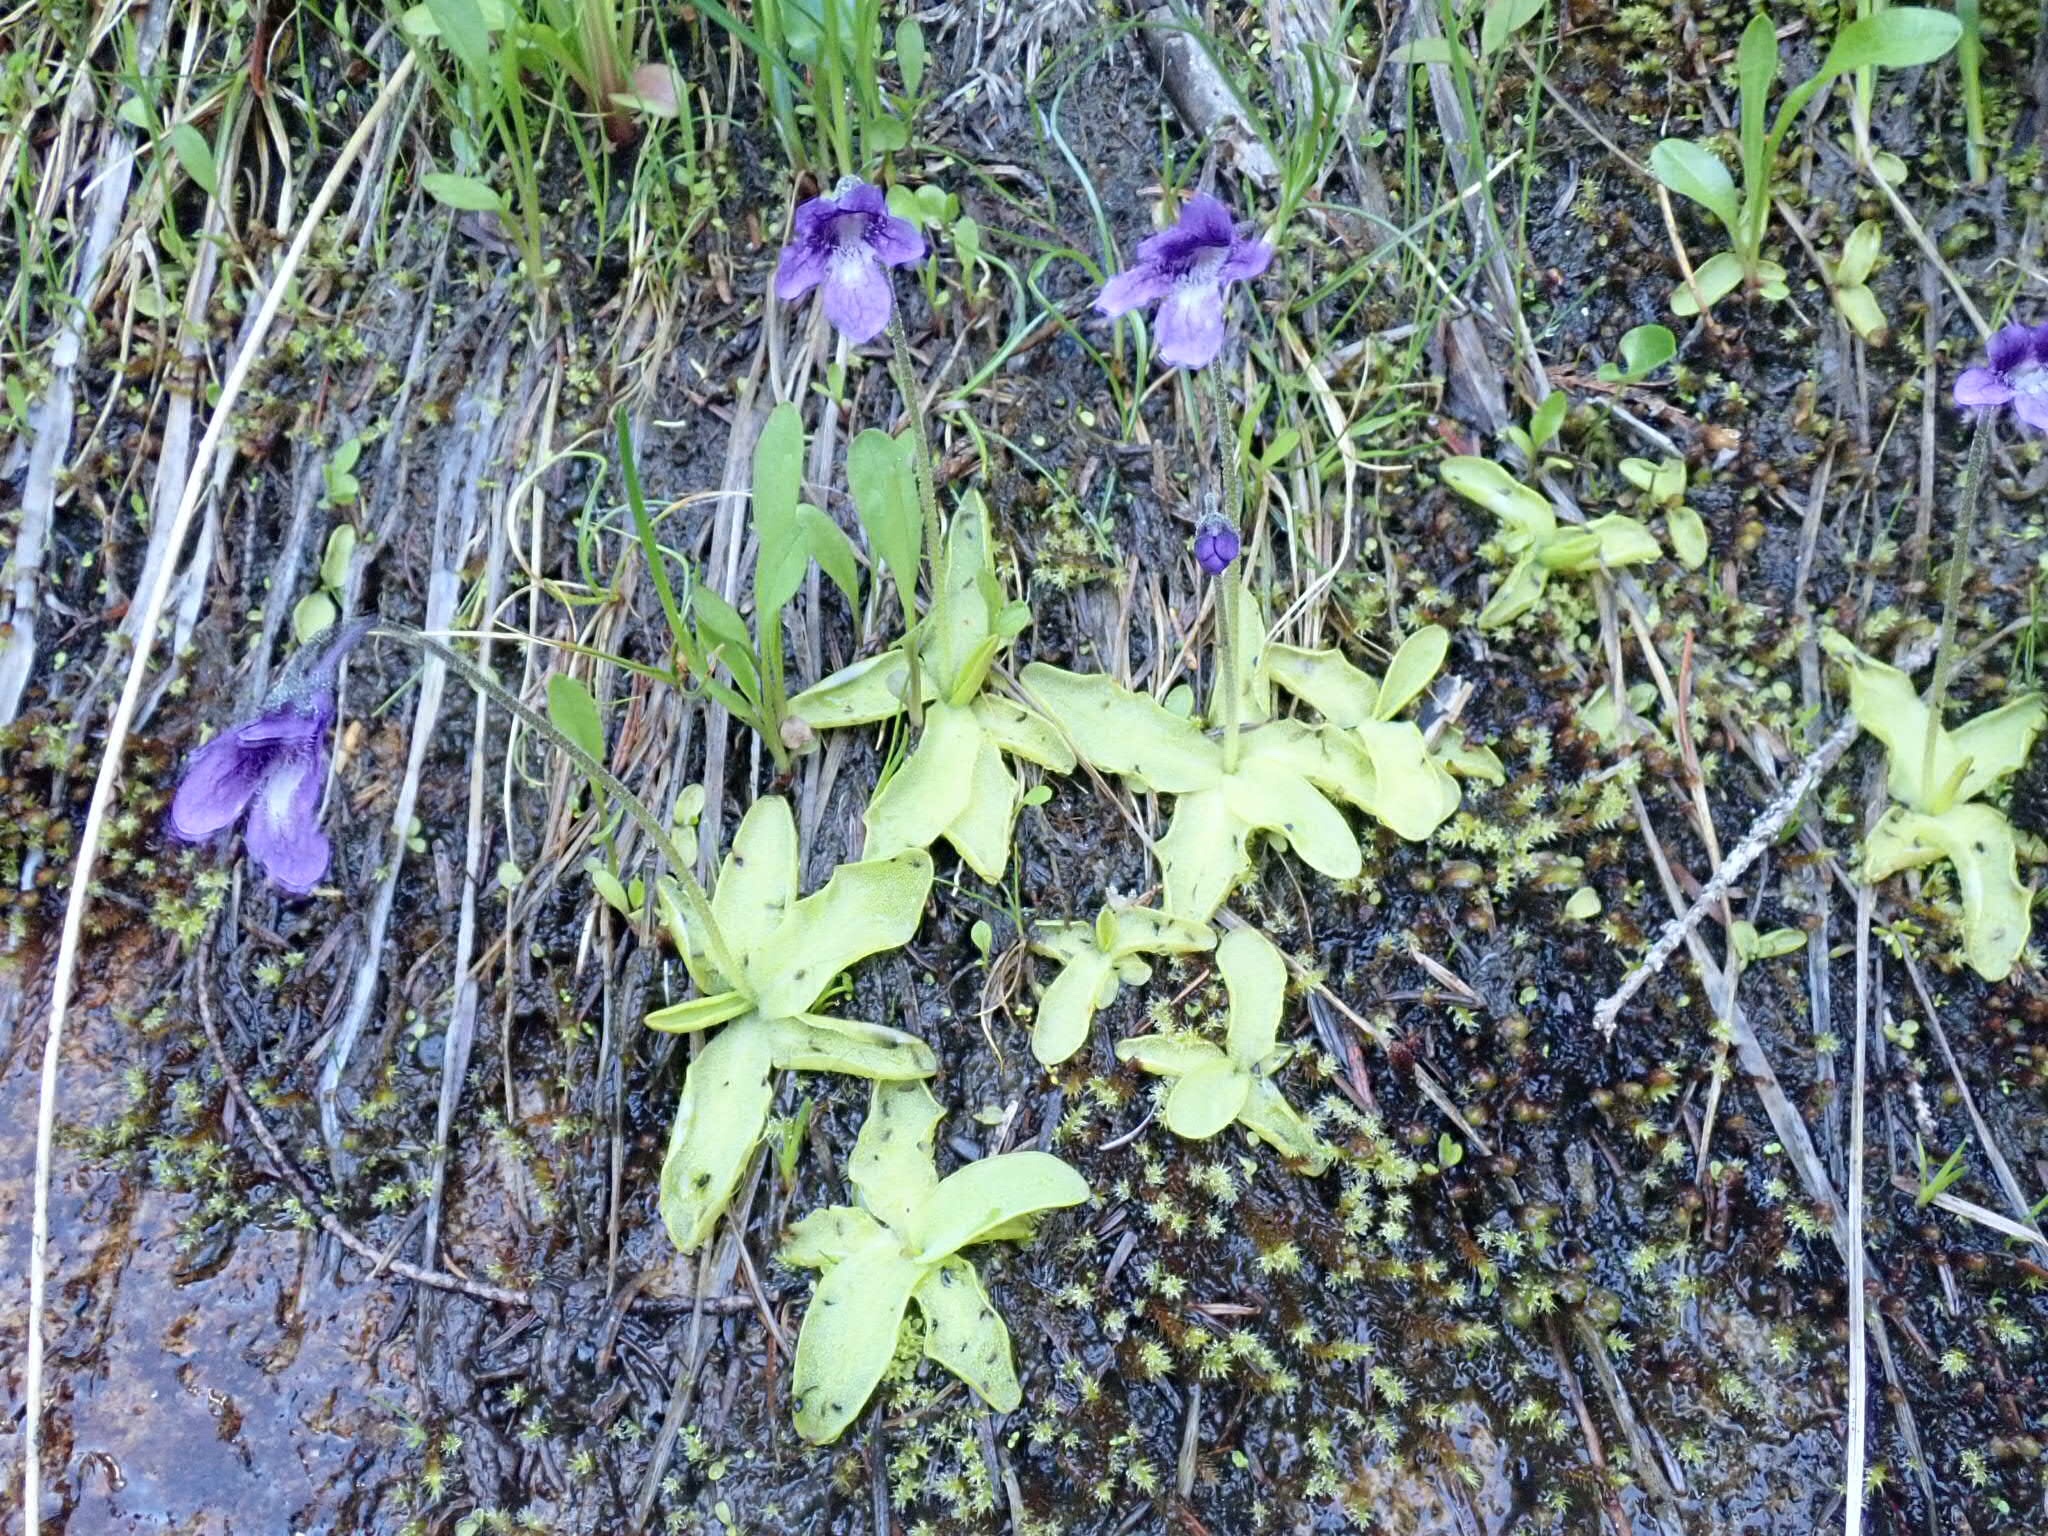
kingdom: Plantae
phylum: Tracheophyta
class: Magnoliopsida
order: Lamiales
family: Lentibulariaceae
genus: Pinguicula
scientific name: Pinguicula vulgaris
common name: Common butterwort
